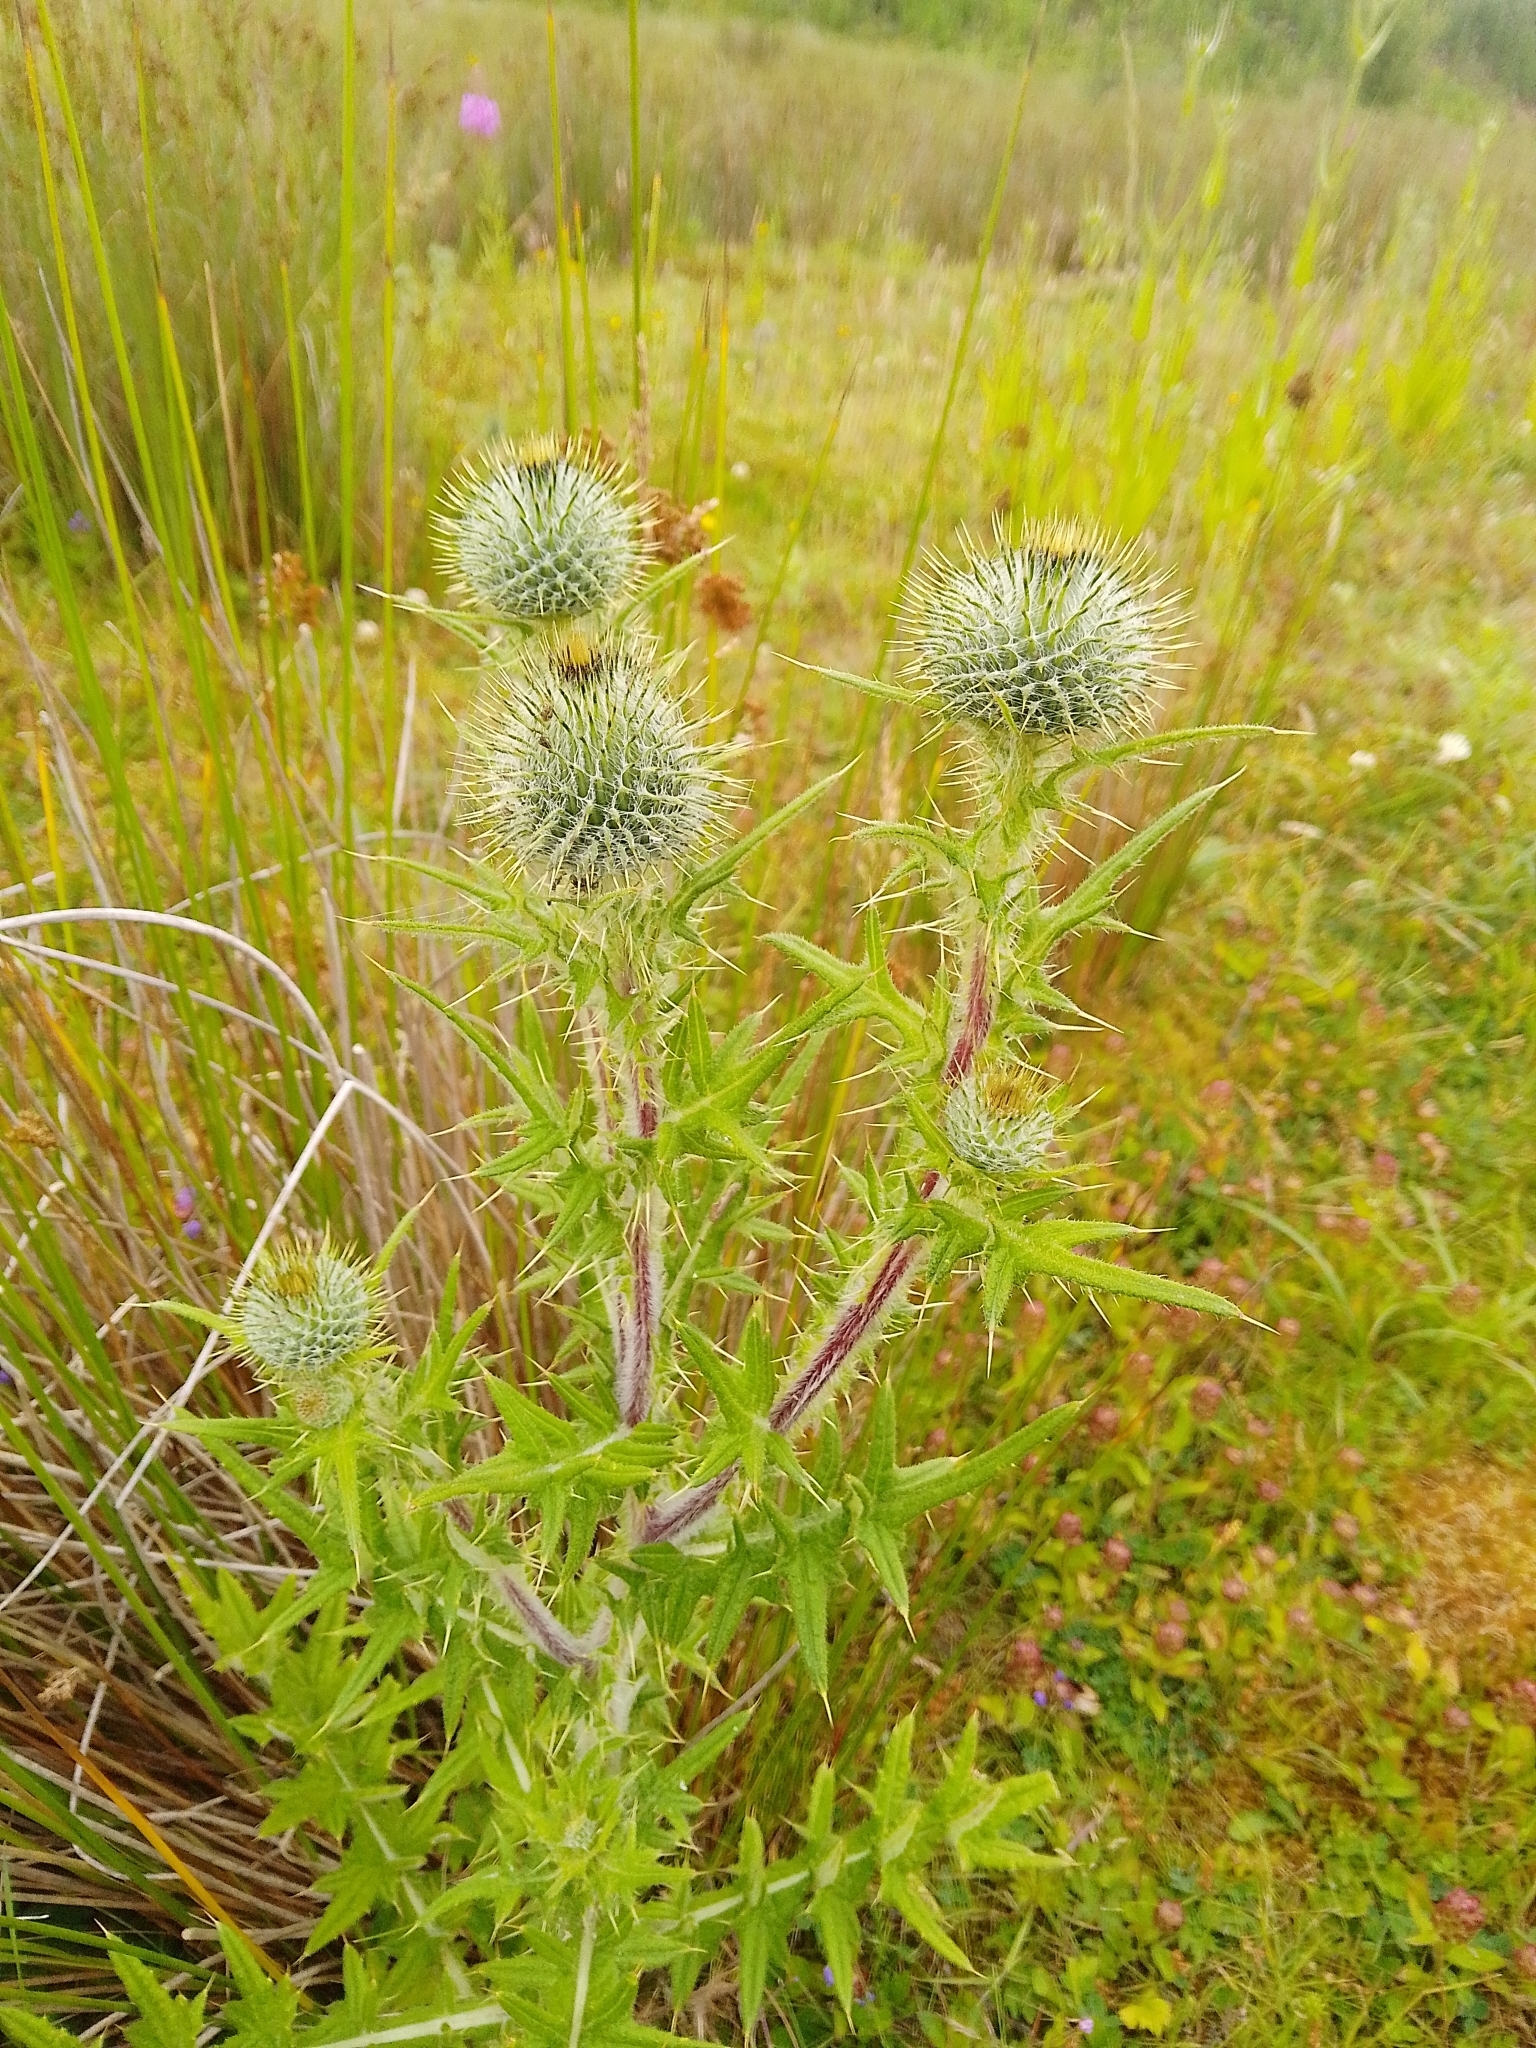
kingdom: Plantae
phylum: Tracheophyta
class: Magnoliopsida
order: Asterales
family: Asteraceae
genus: Cirsium
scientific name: Cirsium vulgare
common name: Bull thistle
